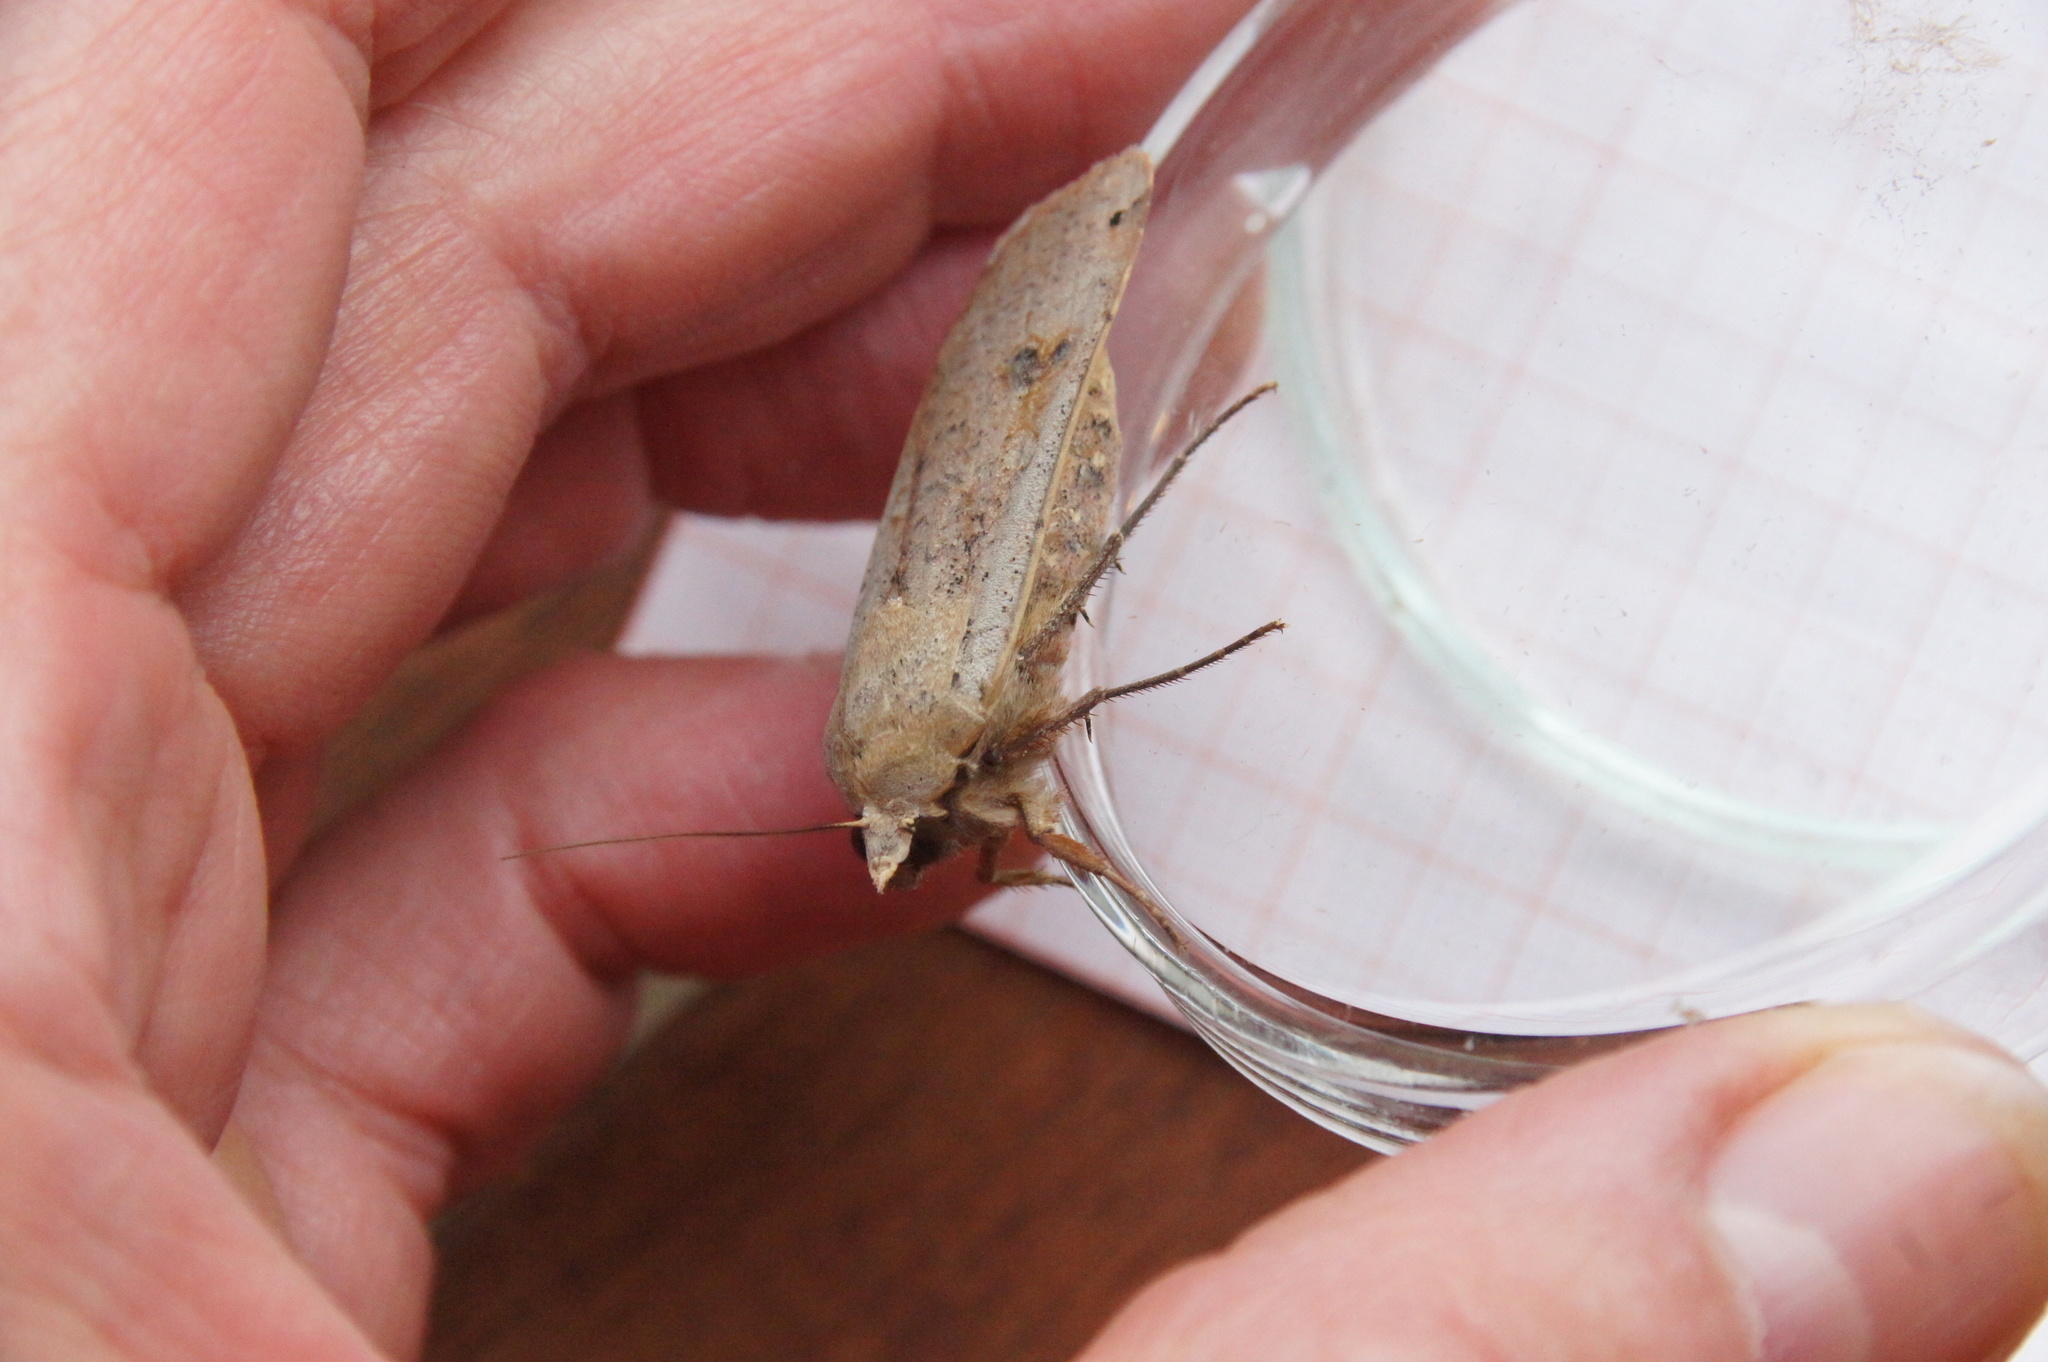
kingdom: Animalia
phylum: Arthropoda
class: Insecta
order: Lepidoptera
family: Noctuidae
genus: Noctua
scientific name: Noctua pronuba
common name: Large yellow underwing
